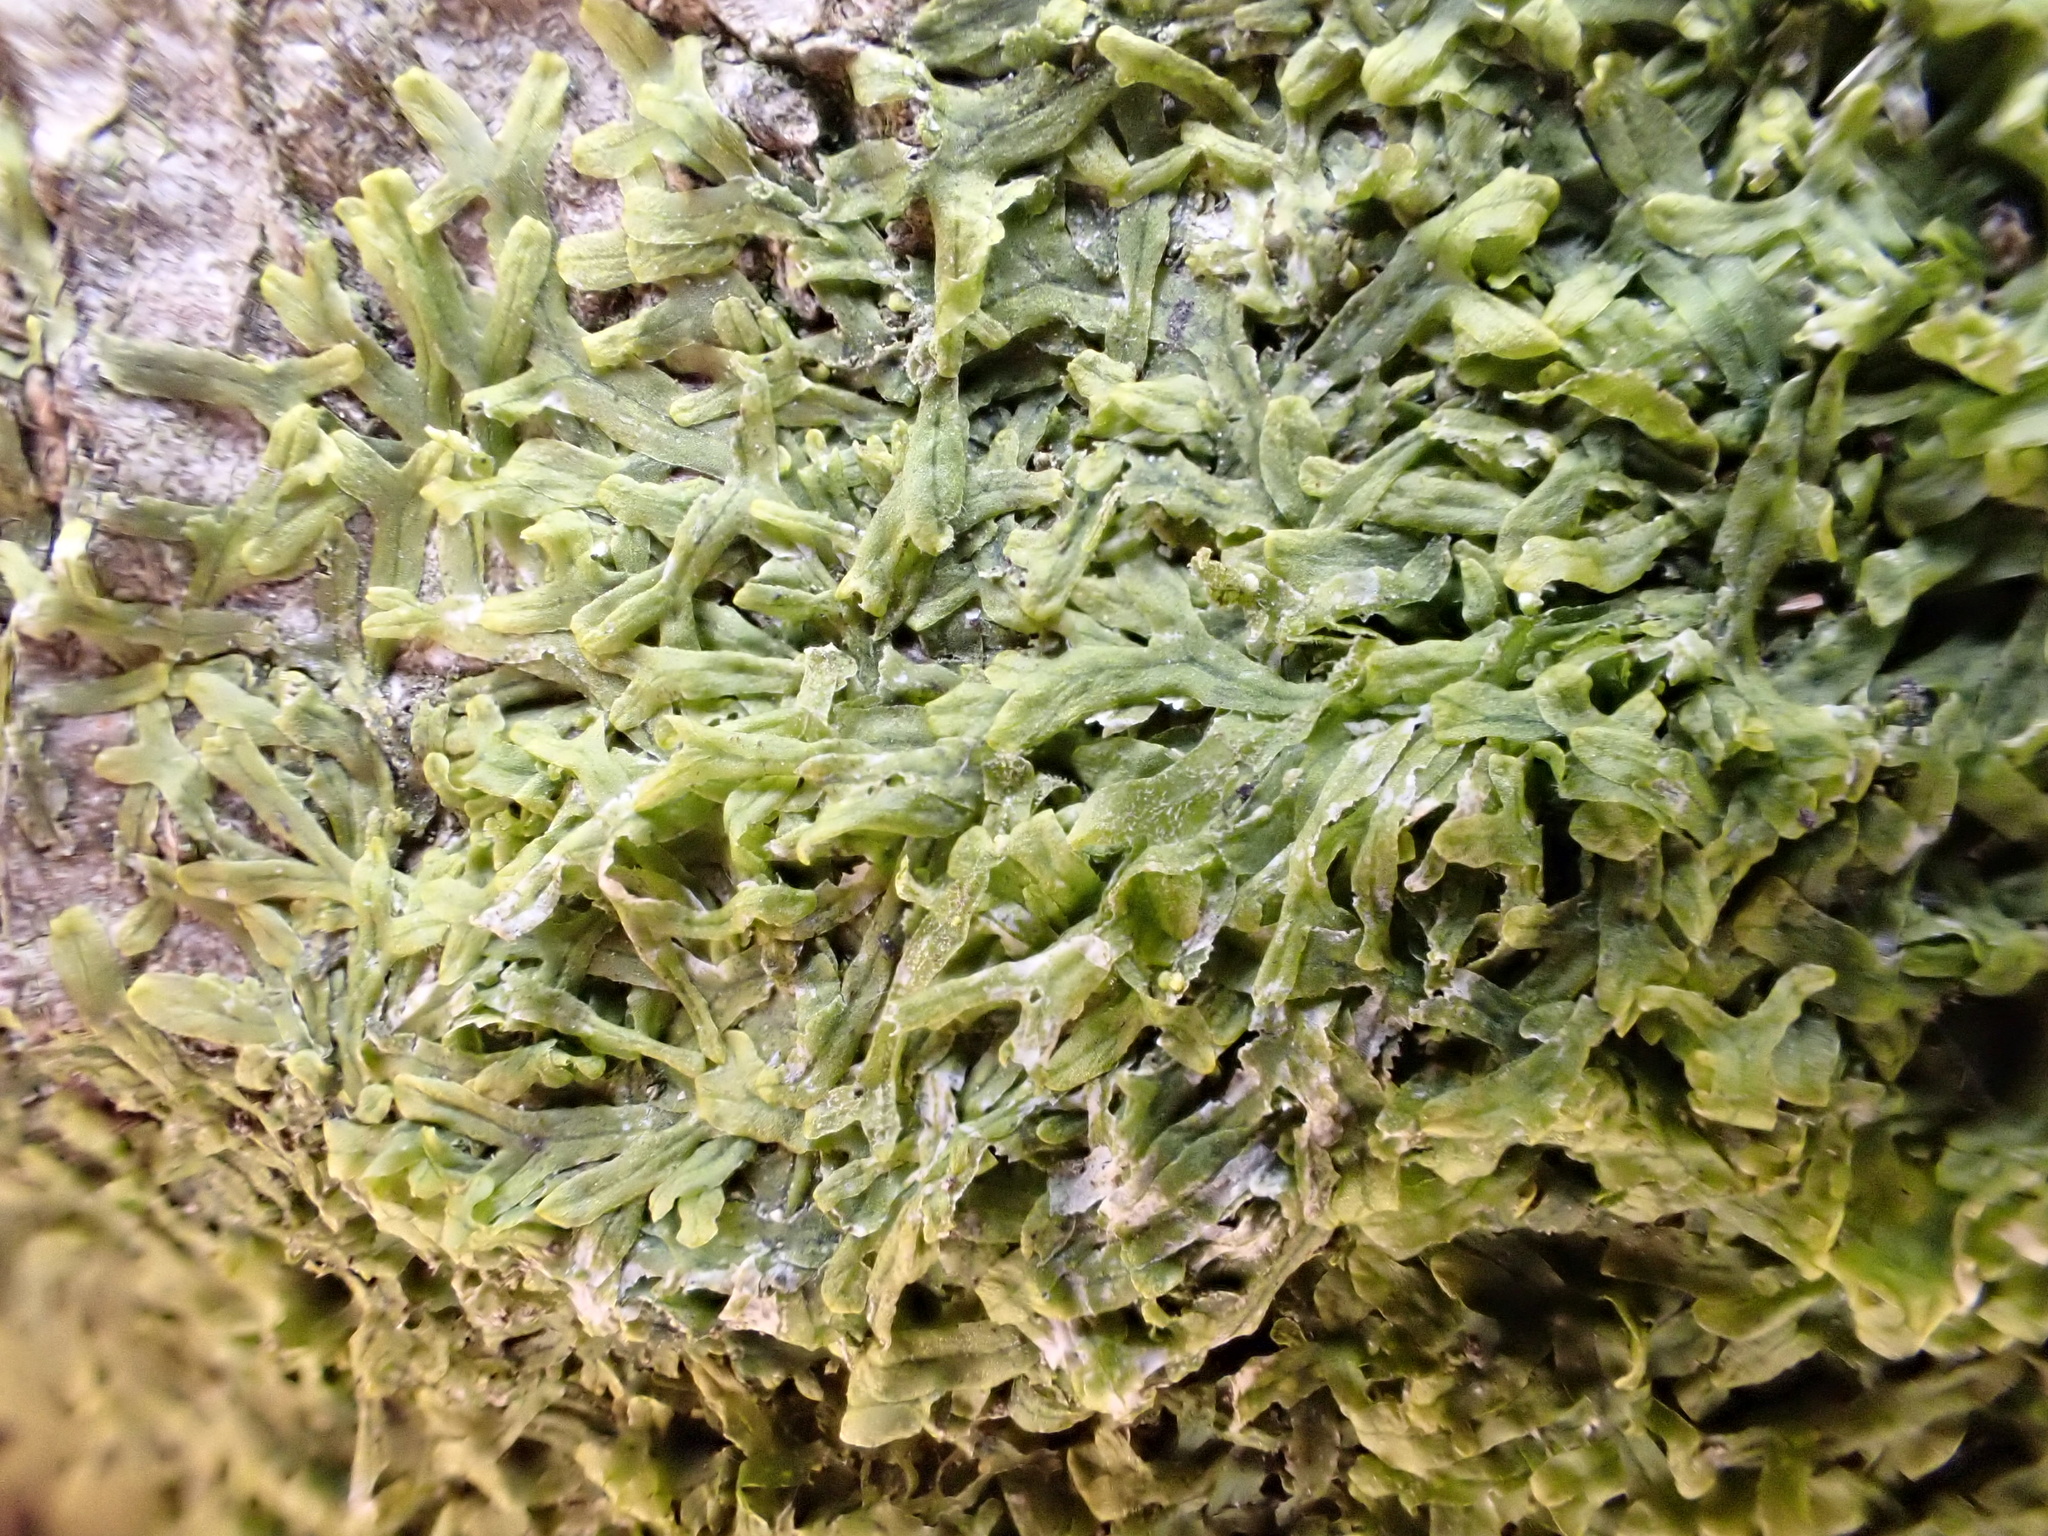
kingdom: Plantae
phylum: Marchantiophyta
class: Jungermanniopsida
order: Metzgeriales
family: Metzgeriaceae
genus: Metzgeria
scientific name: Metzgeria furcata
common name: Forked veilwort
